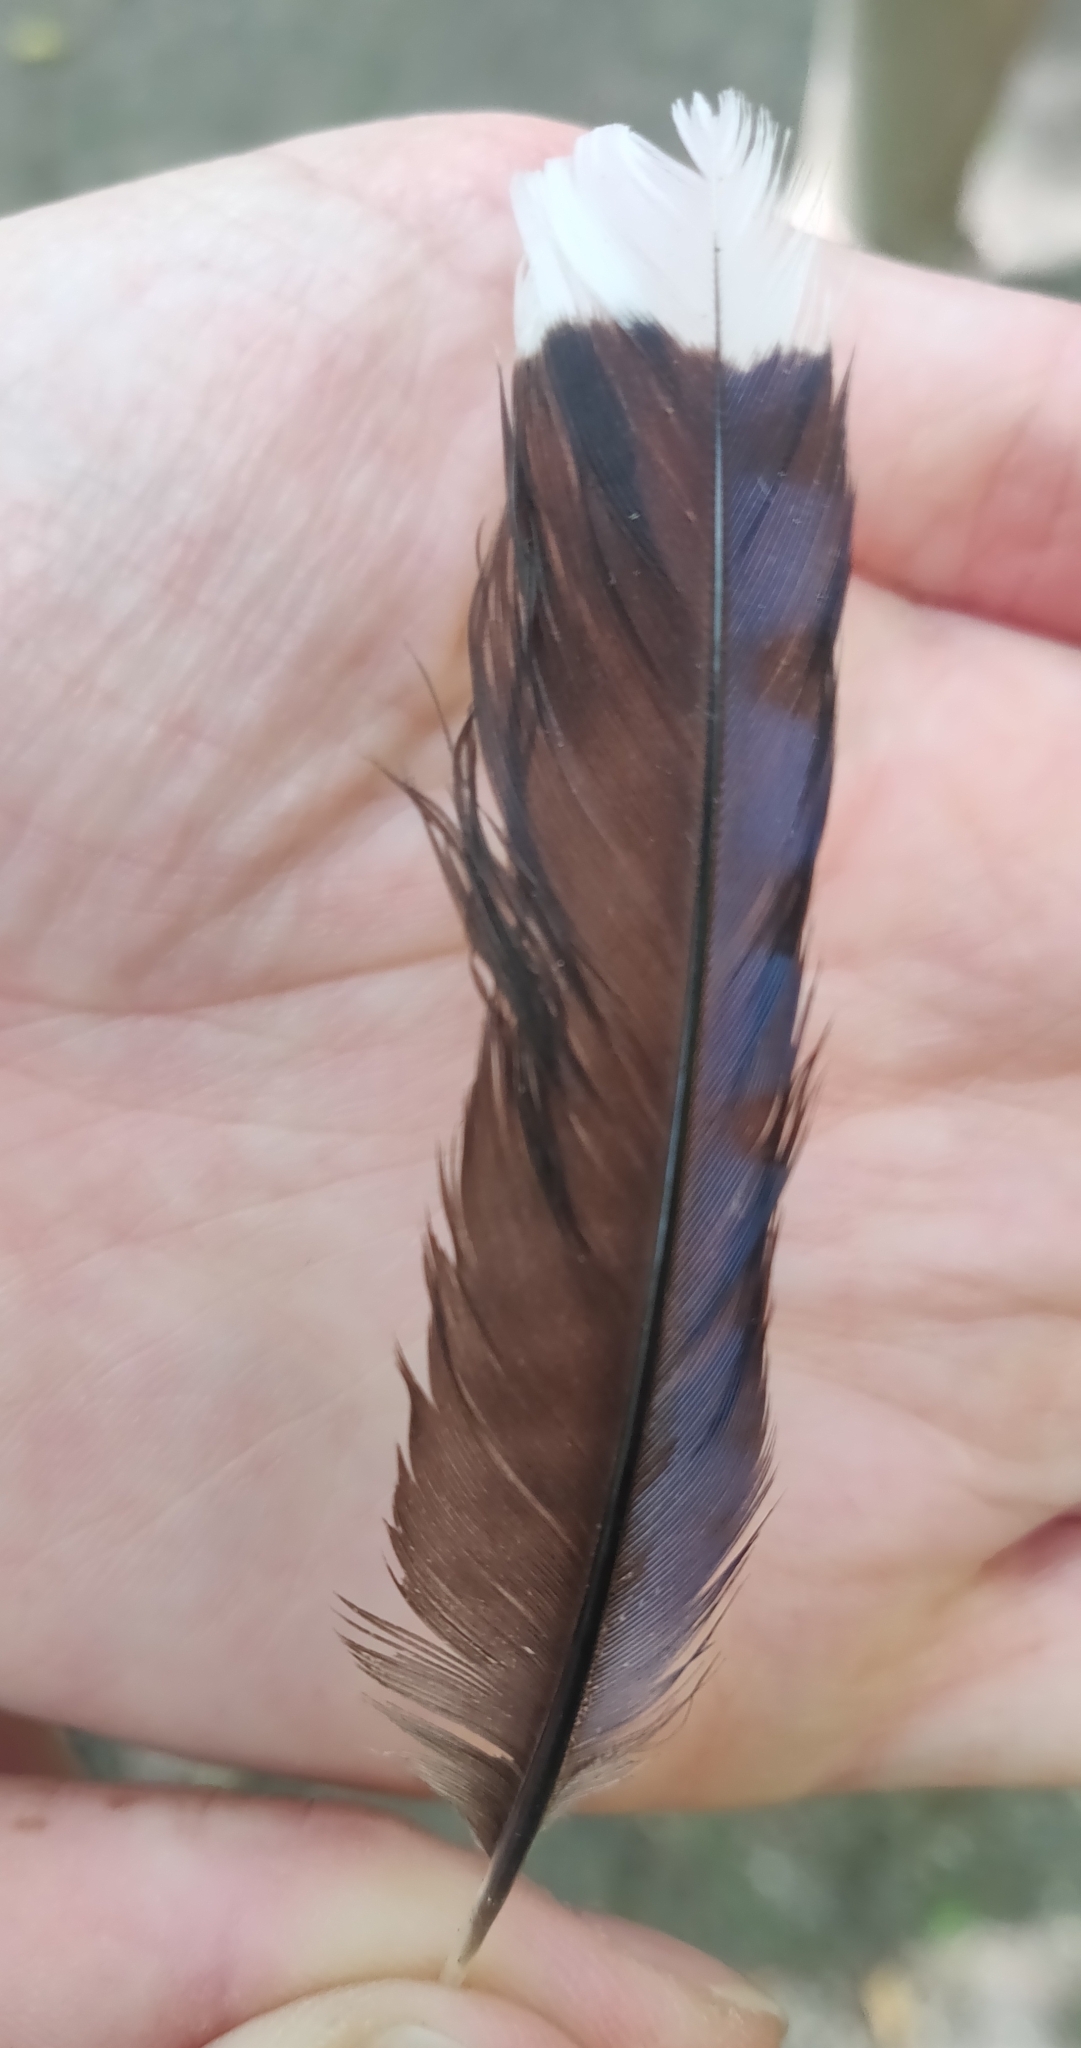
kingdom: Animalia
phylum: Chordata
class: Aves
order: Passeriformes
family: Corvidae
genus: Cyanocitta
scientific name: Cyanocitta cristata
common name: Blue jay
